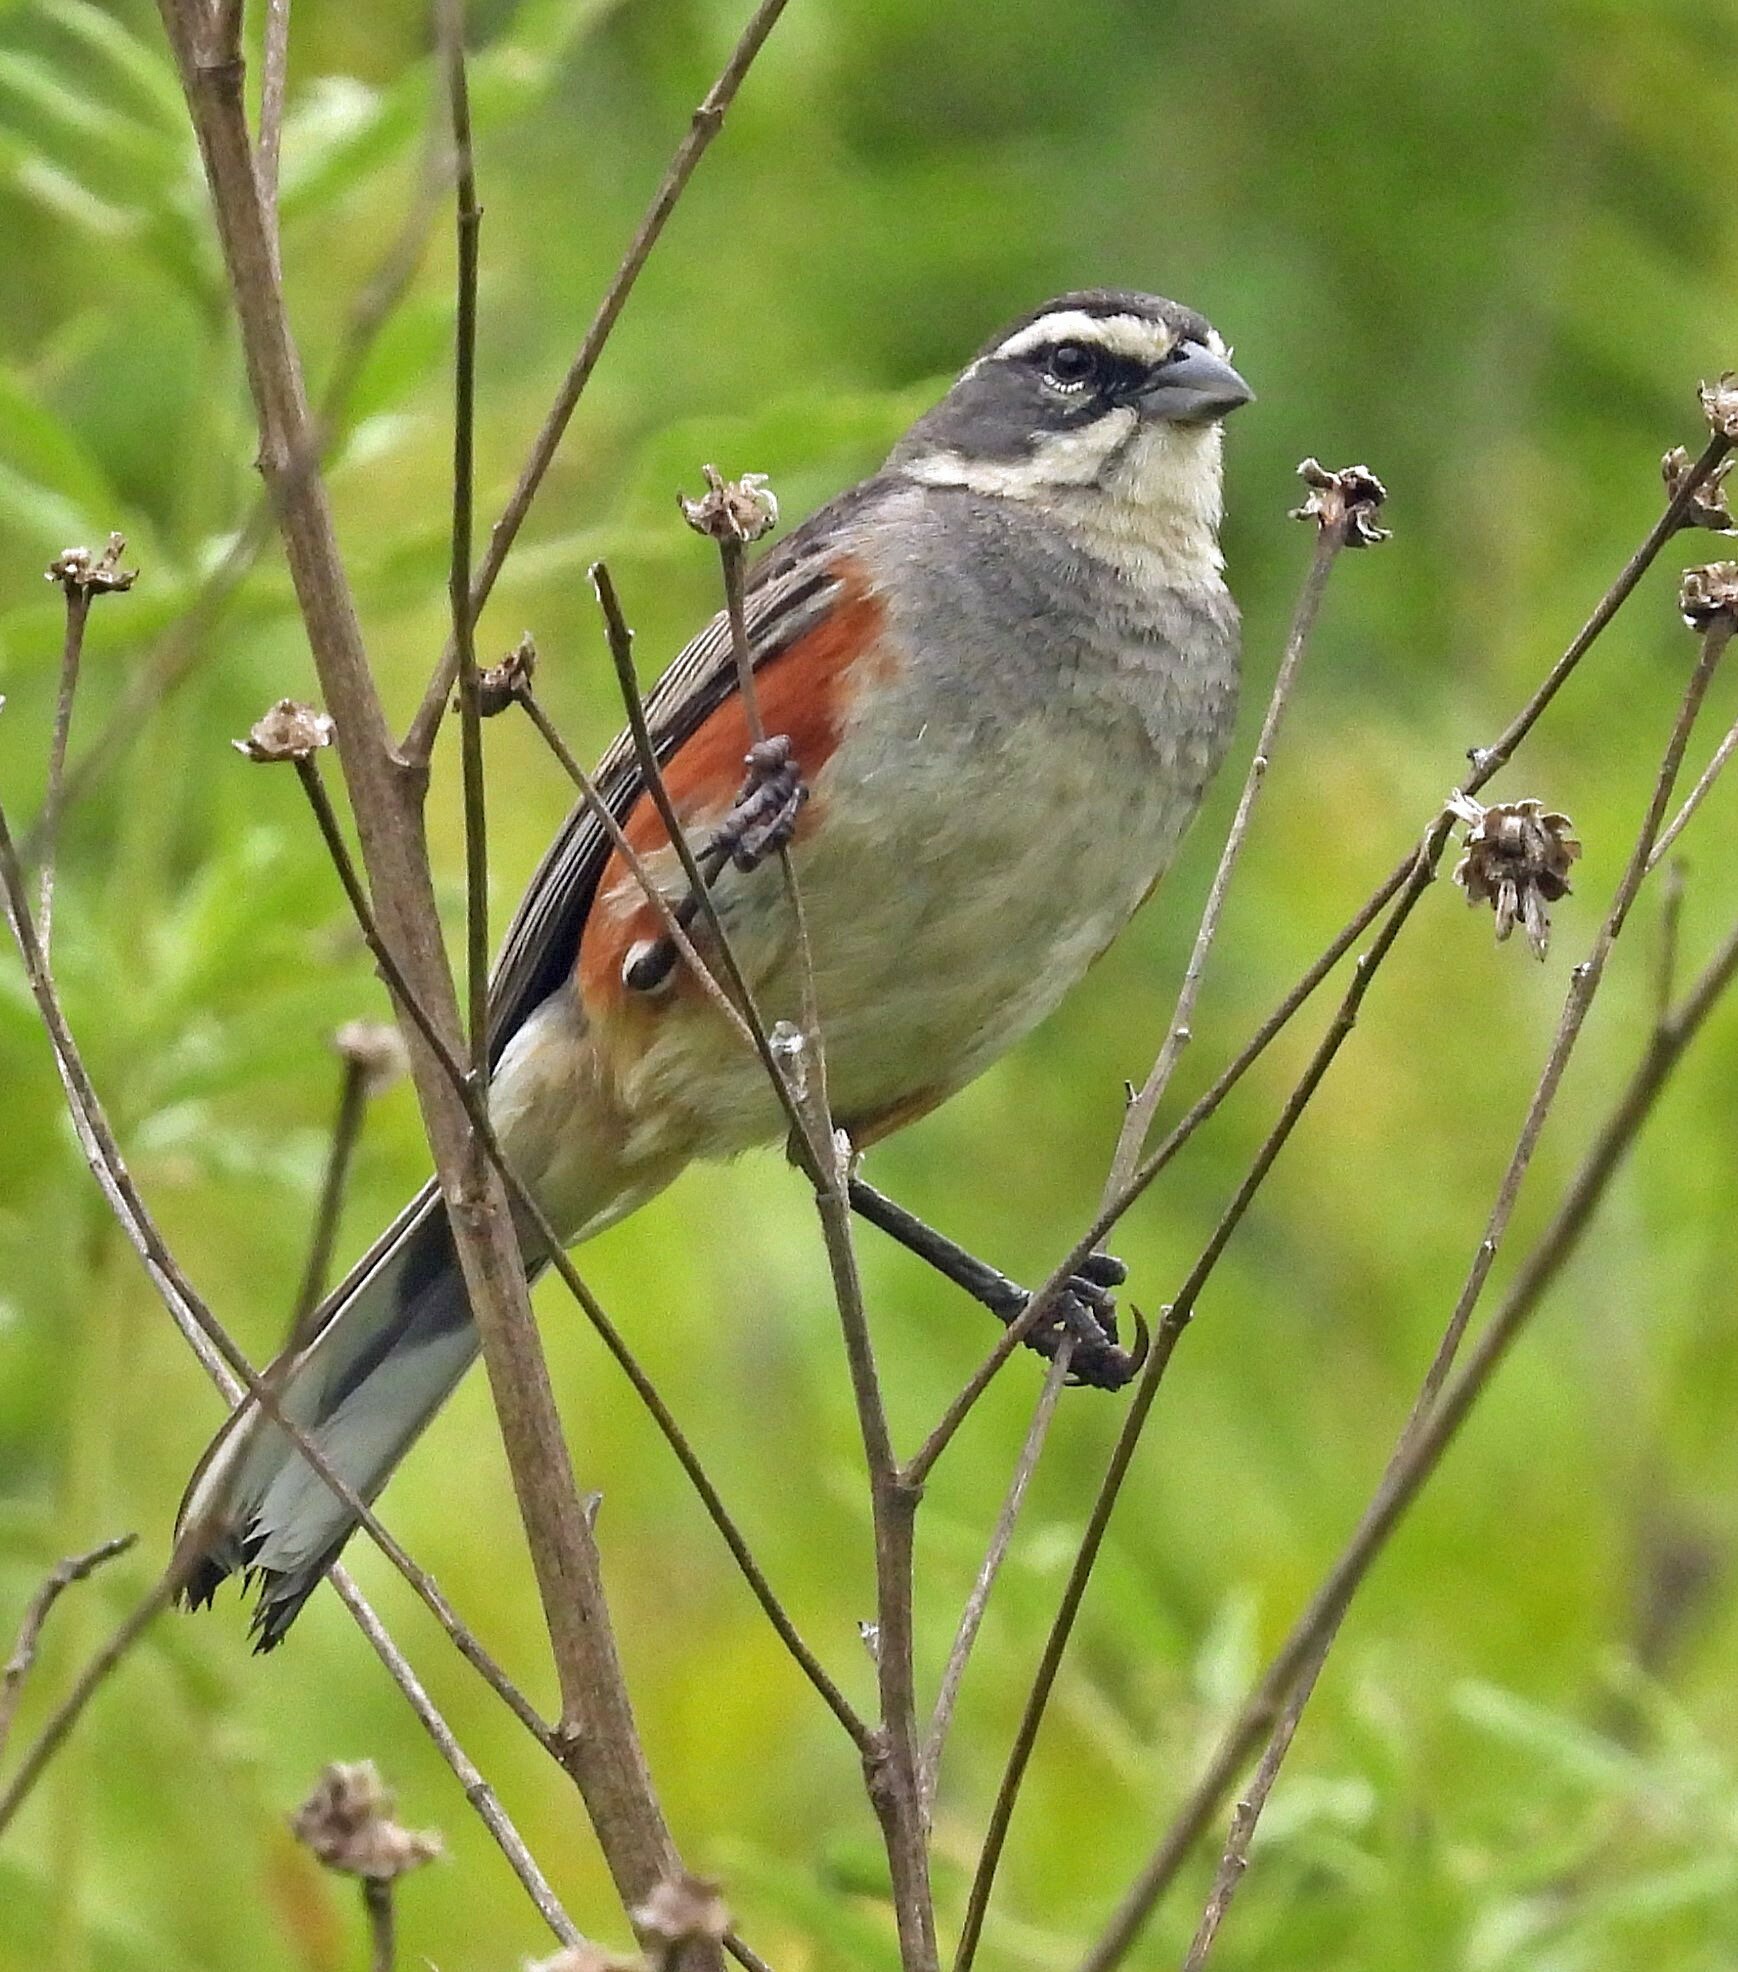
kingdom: Animalia
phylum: Chordata
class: Aves
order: Passeriformes
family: Thraupidae
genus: Poospizopsis
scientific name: Poospizopsis hypocondria
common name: Rufous-sided warbling-finch
